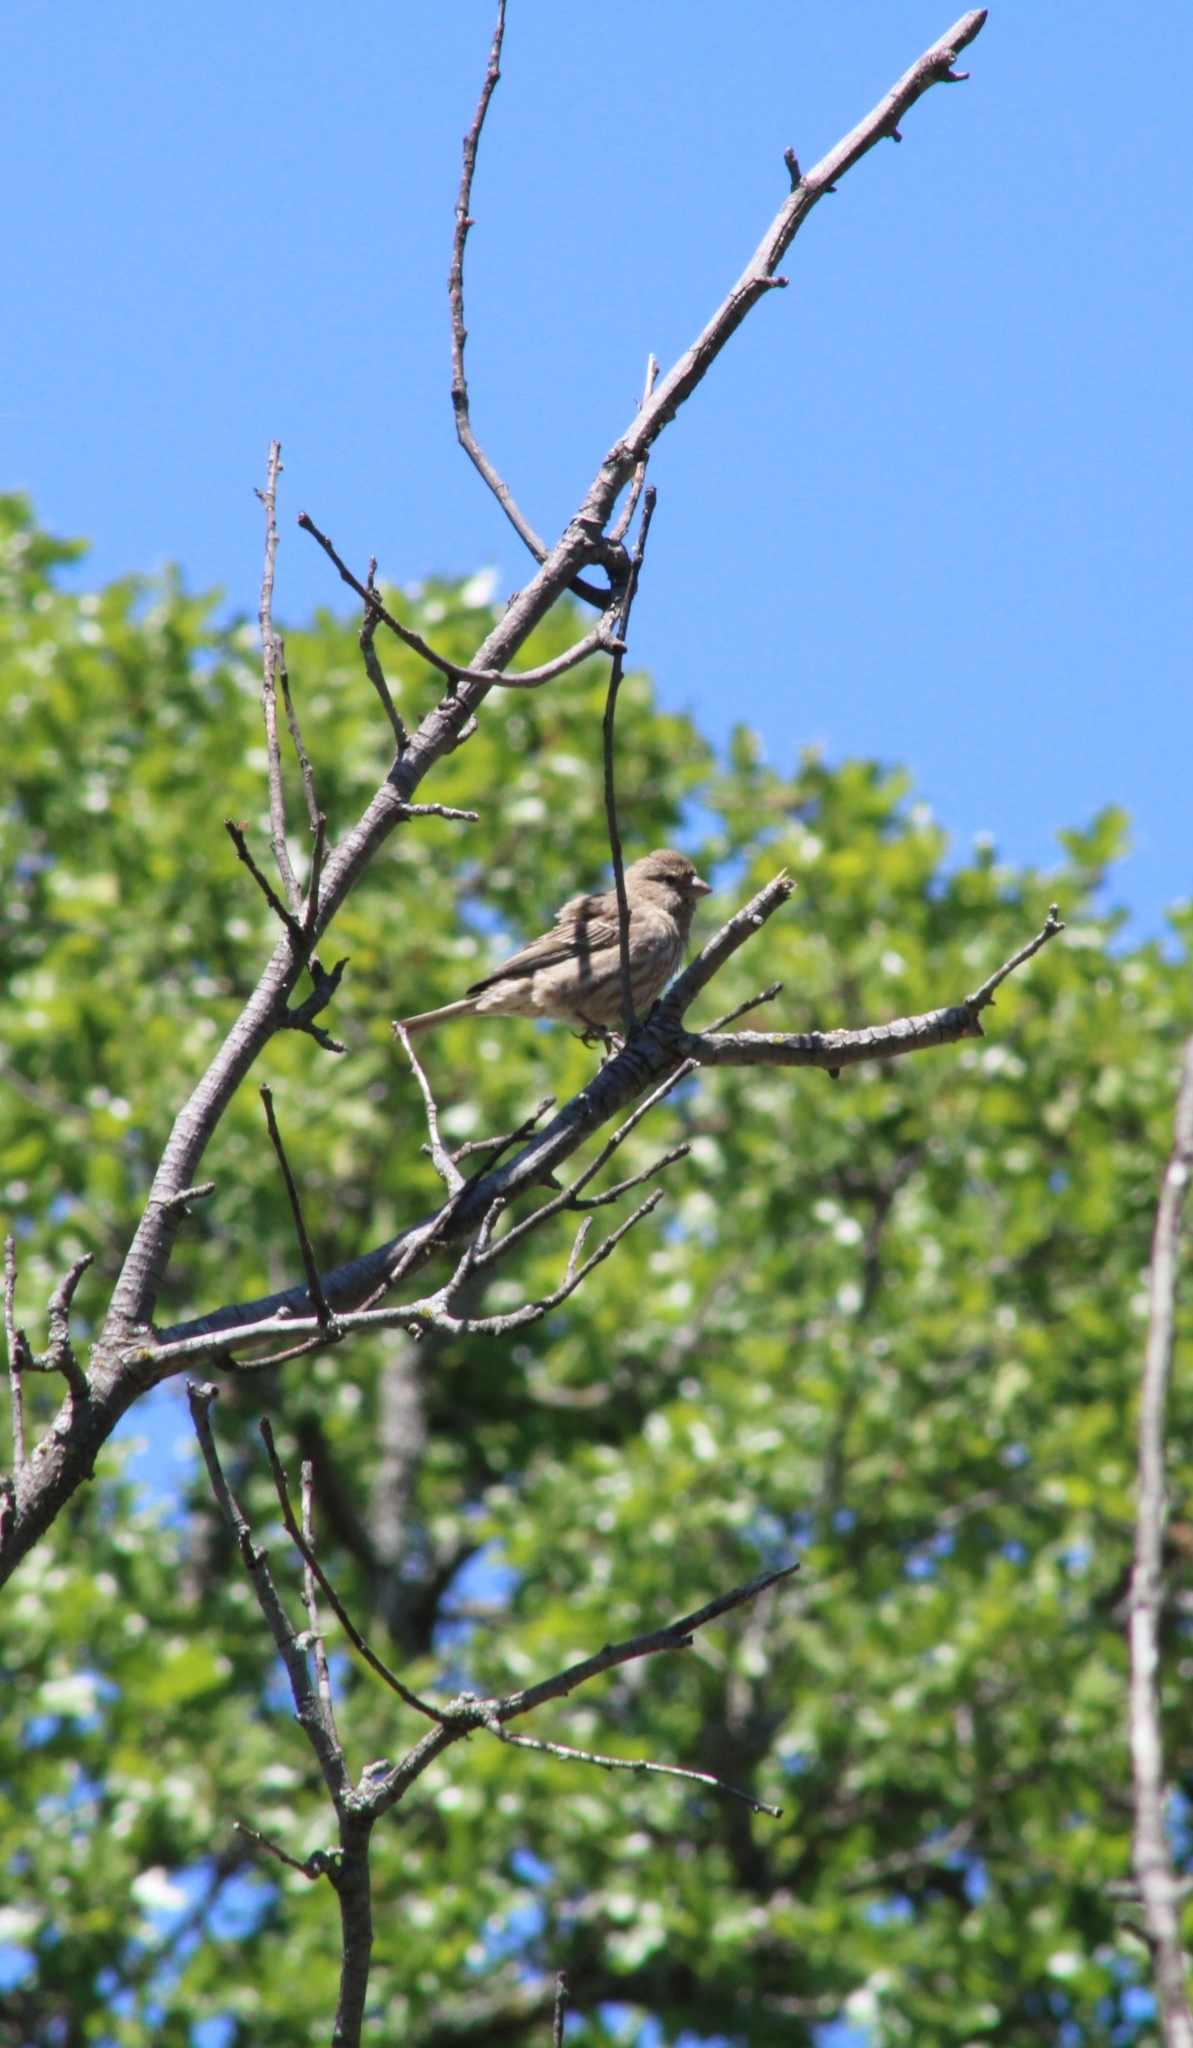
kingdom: Animalia
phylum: Chordata
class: Aves
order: Passeriformes
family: Fringillidae
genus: Haemorhous
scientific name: Haemorhous mexicanus
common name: House finch
